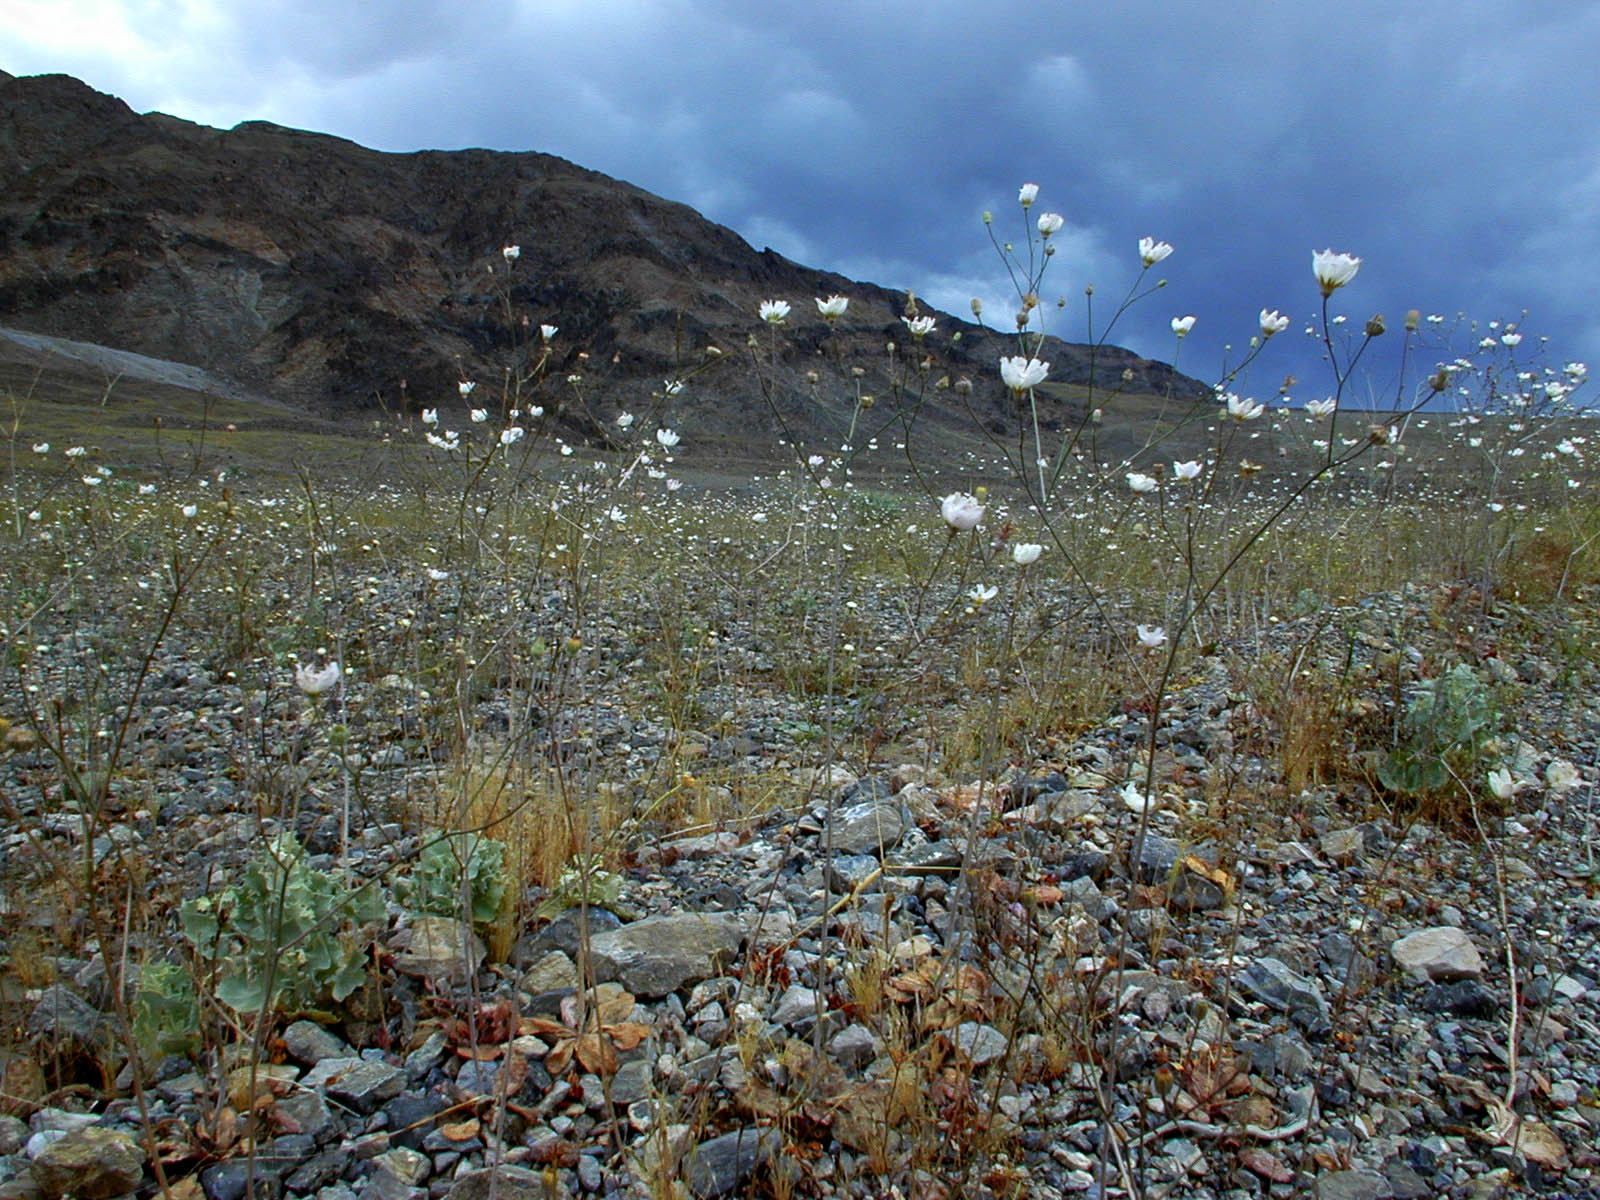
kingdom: Plantae
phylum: Tracheophyta
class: Magnoliopsida
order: Asterales
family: Asteraceae
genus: Atrichoseris
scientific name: Atrichoseris platyphylla
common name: Tobaccoweed
